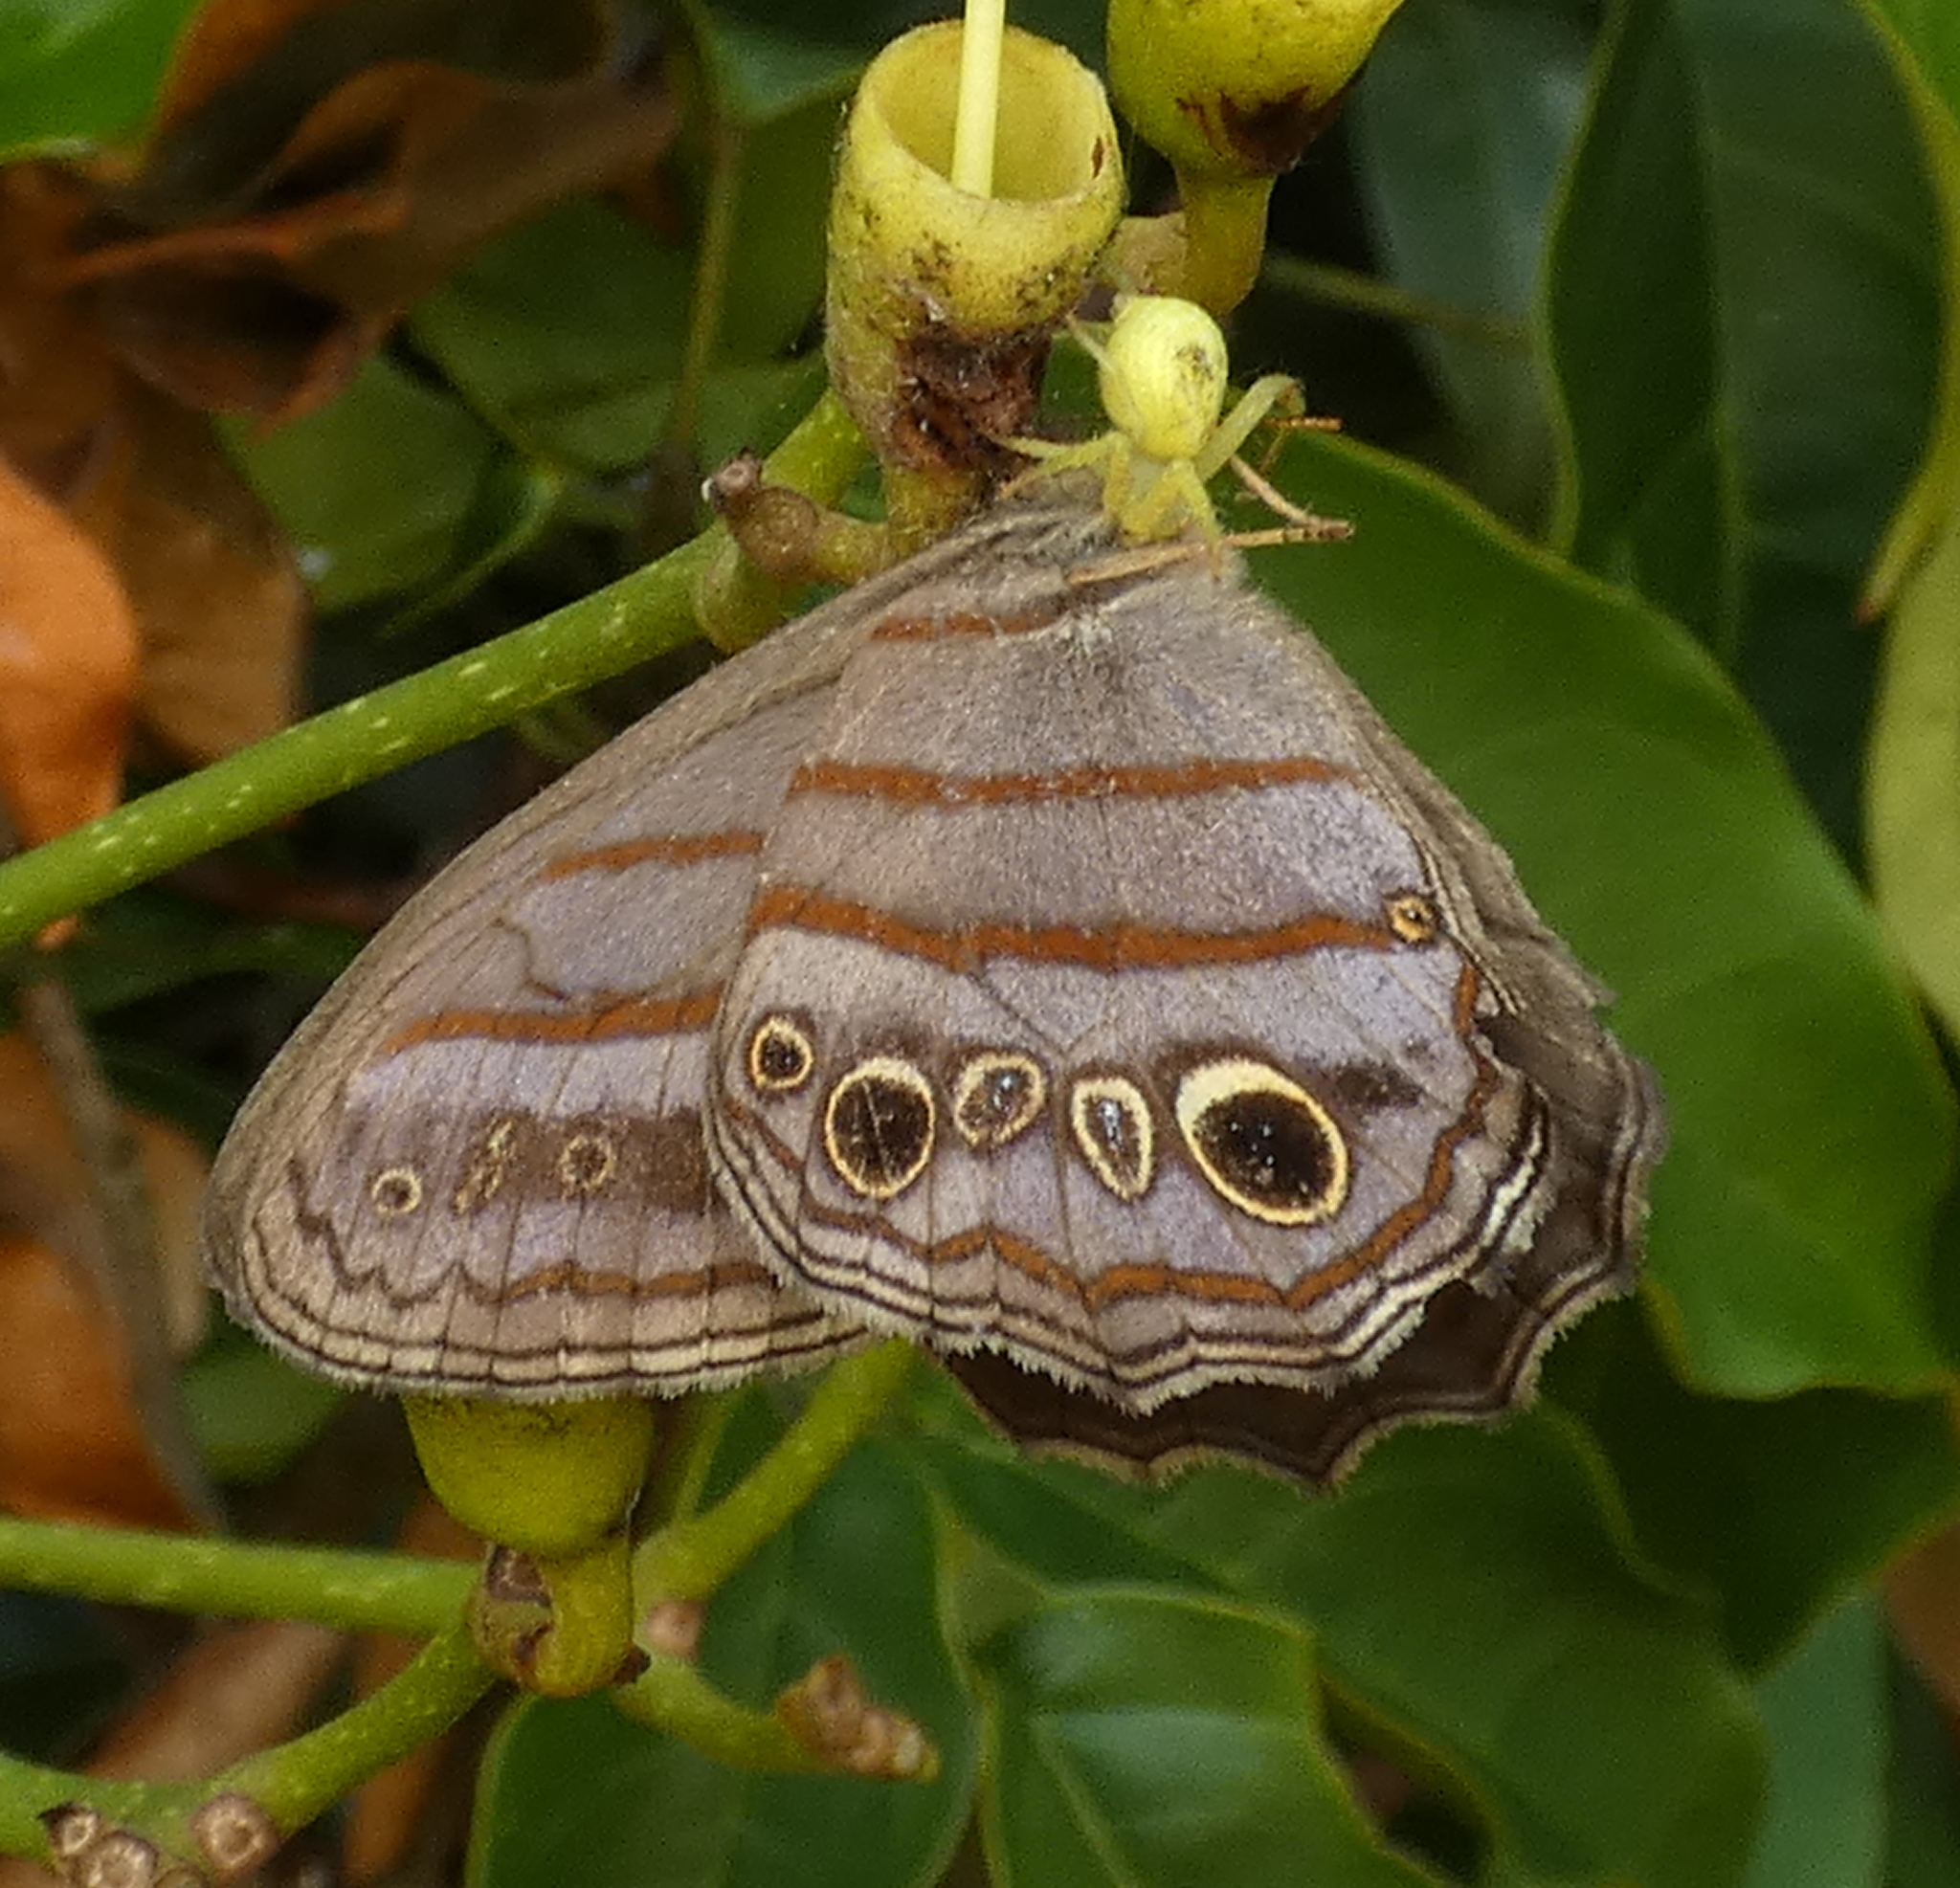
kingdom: Animalia
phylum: Arthropoda
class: Insecta
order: Lepidoptera
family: Nymphalidae
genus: Magneuptychia
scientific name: Magneuptychia libye
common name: Blue-gray satyr
